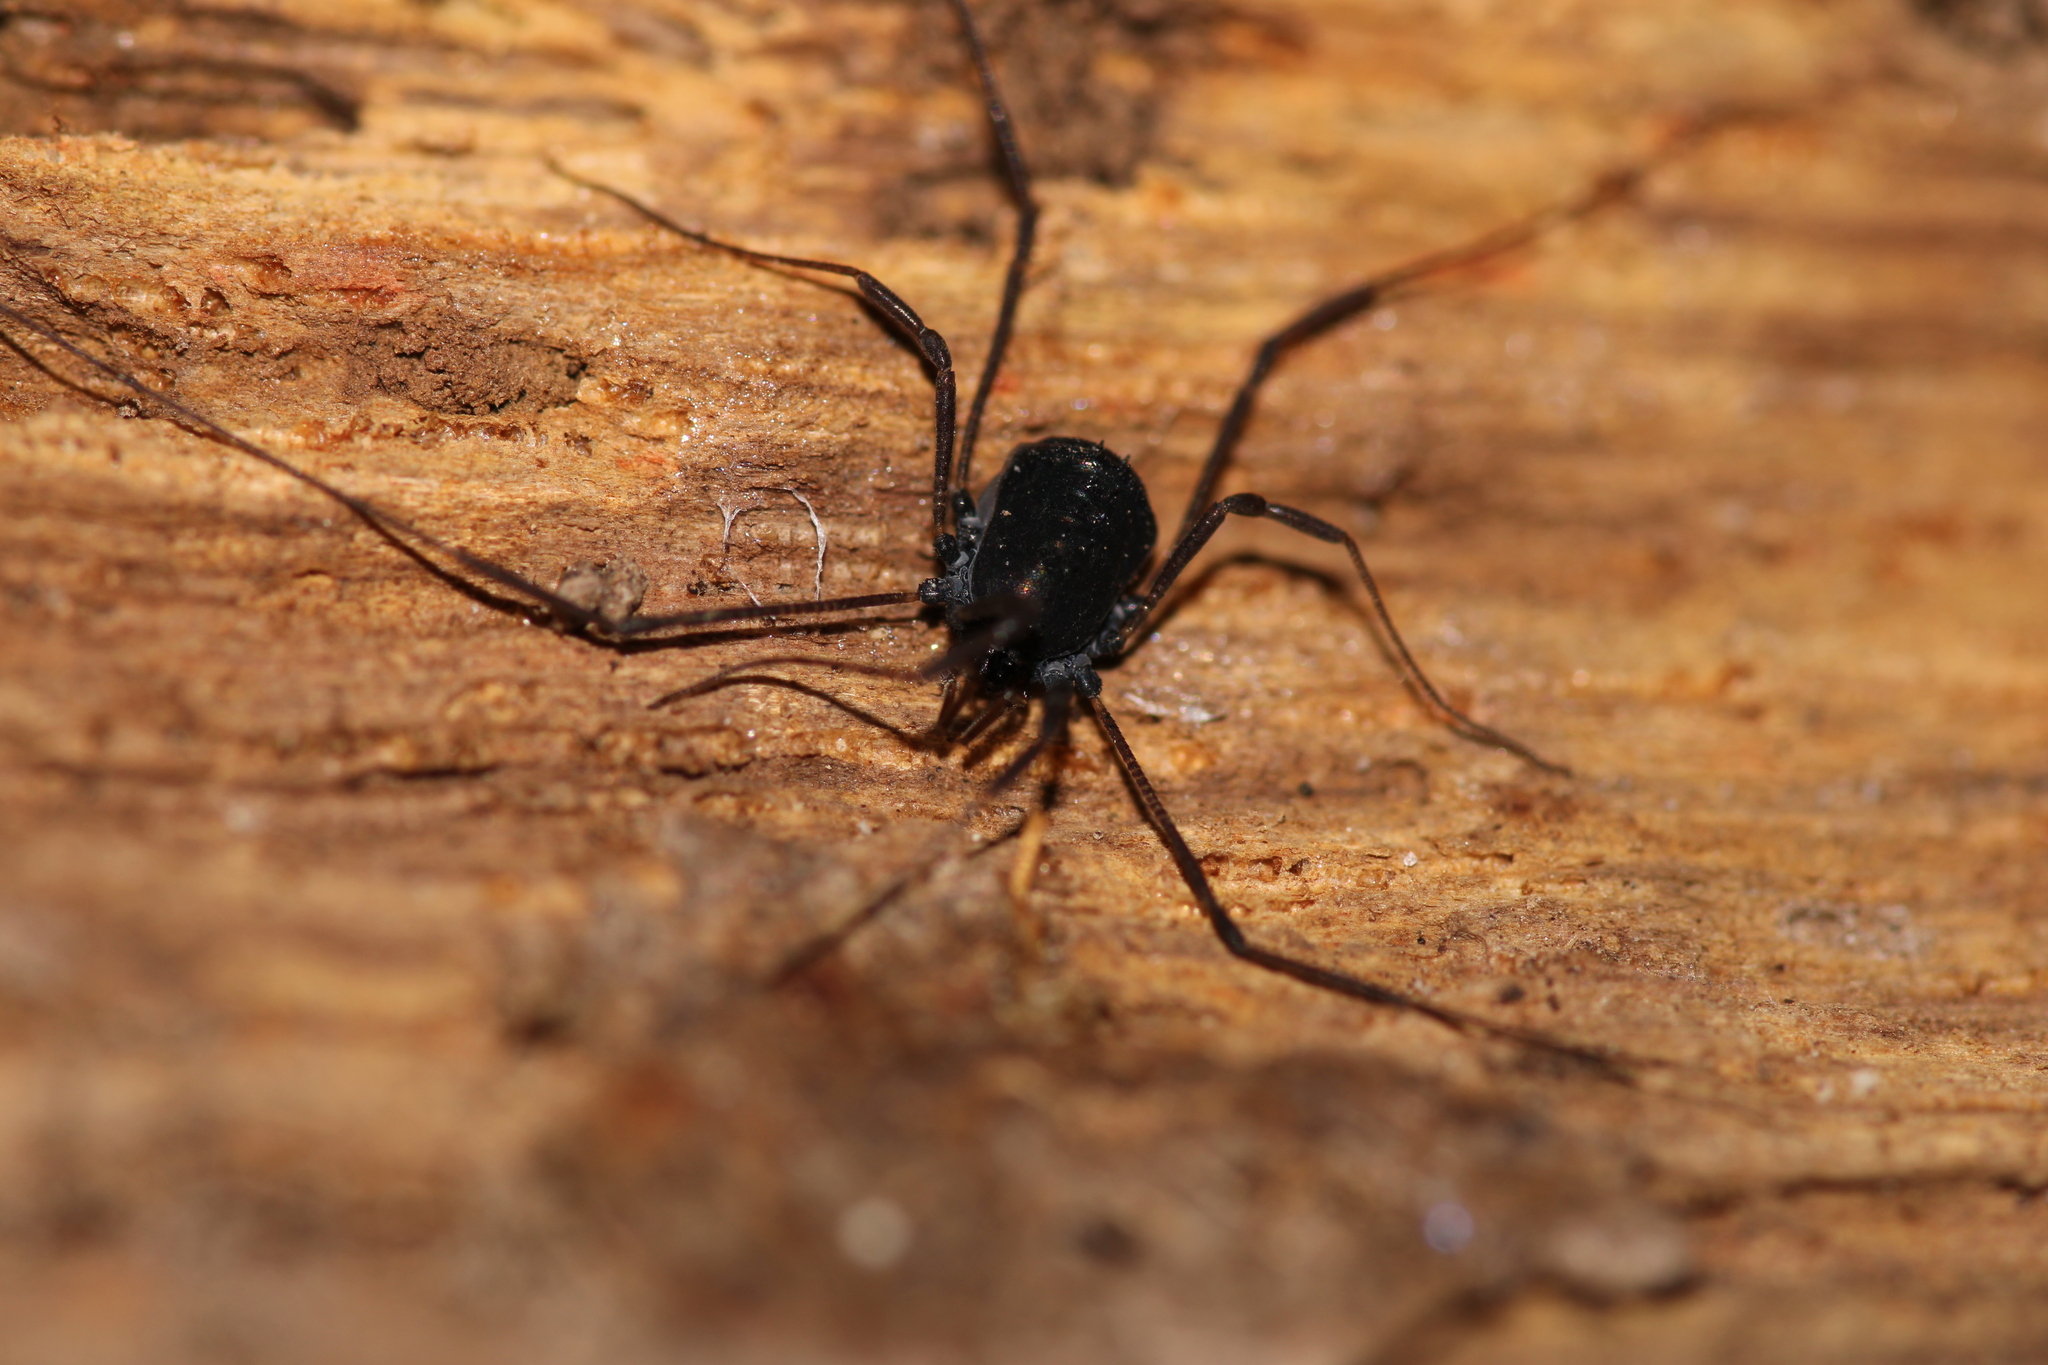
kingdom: Animalia
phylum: Arthropoda
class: Arachnida
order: Opiliones
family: Nemastomatidae
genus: Histricostoma
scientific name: Histricostoma dentipalpe
